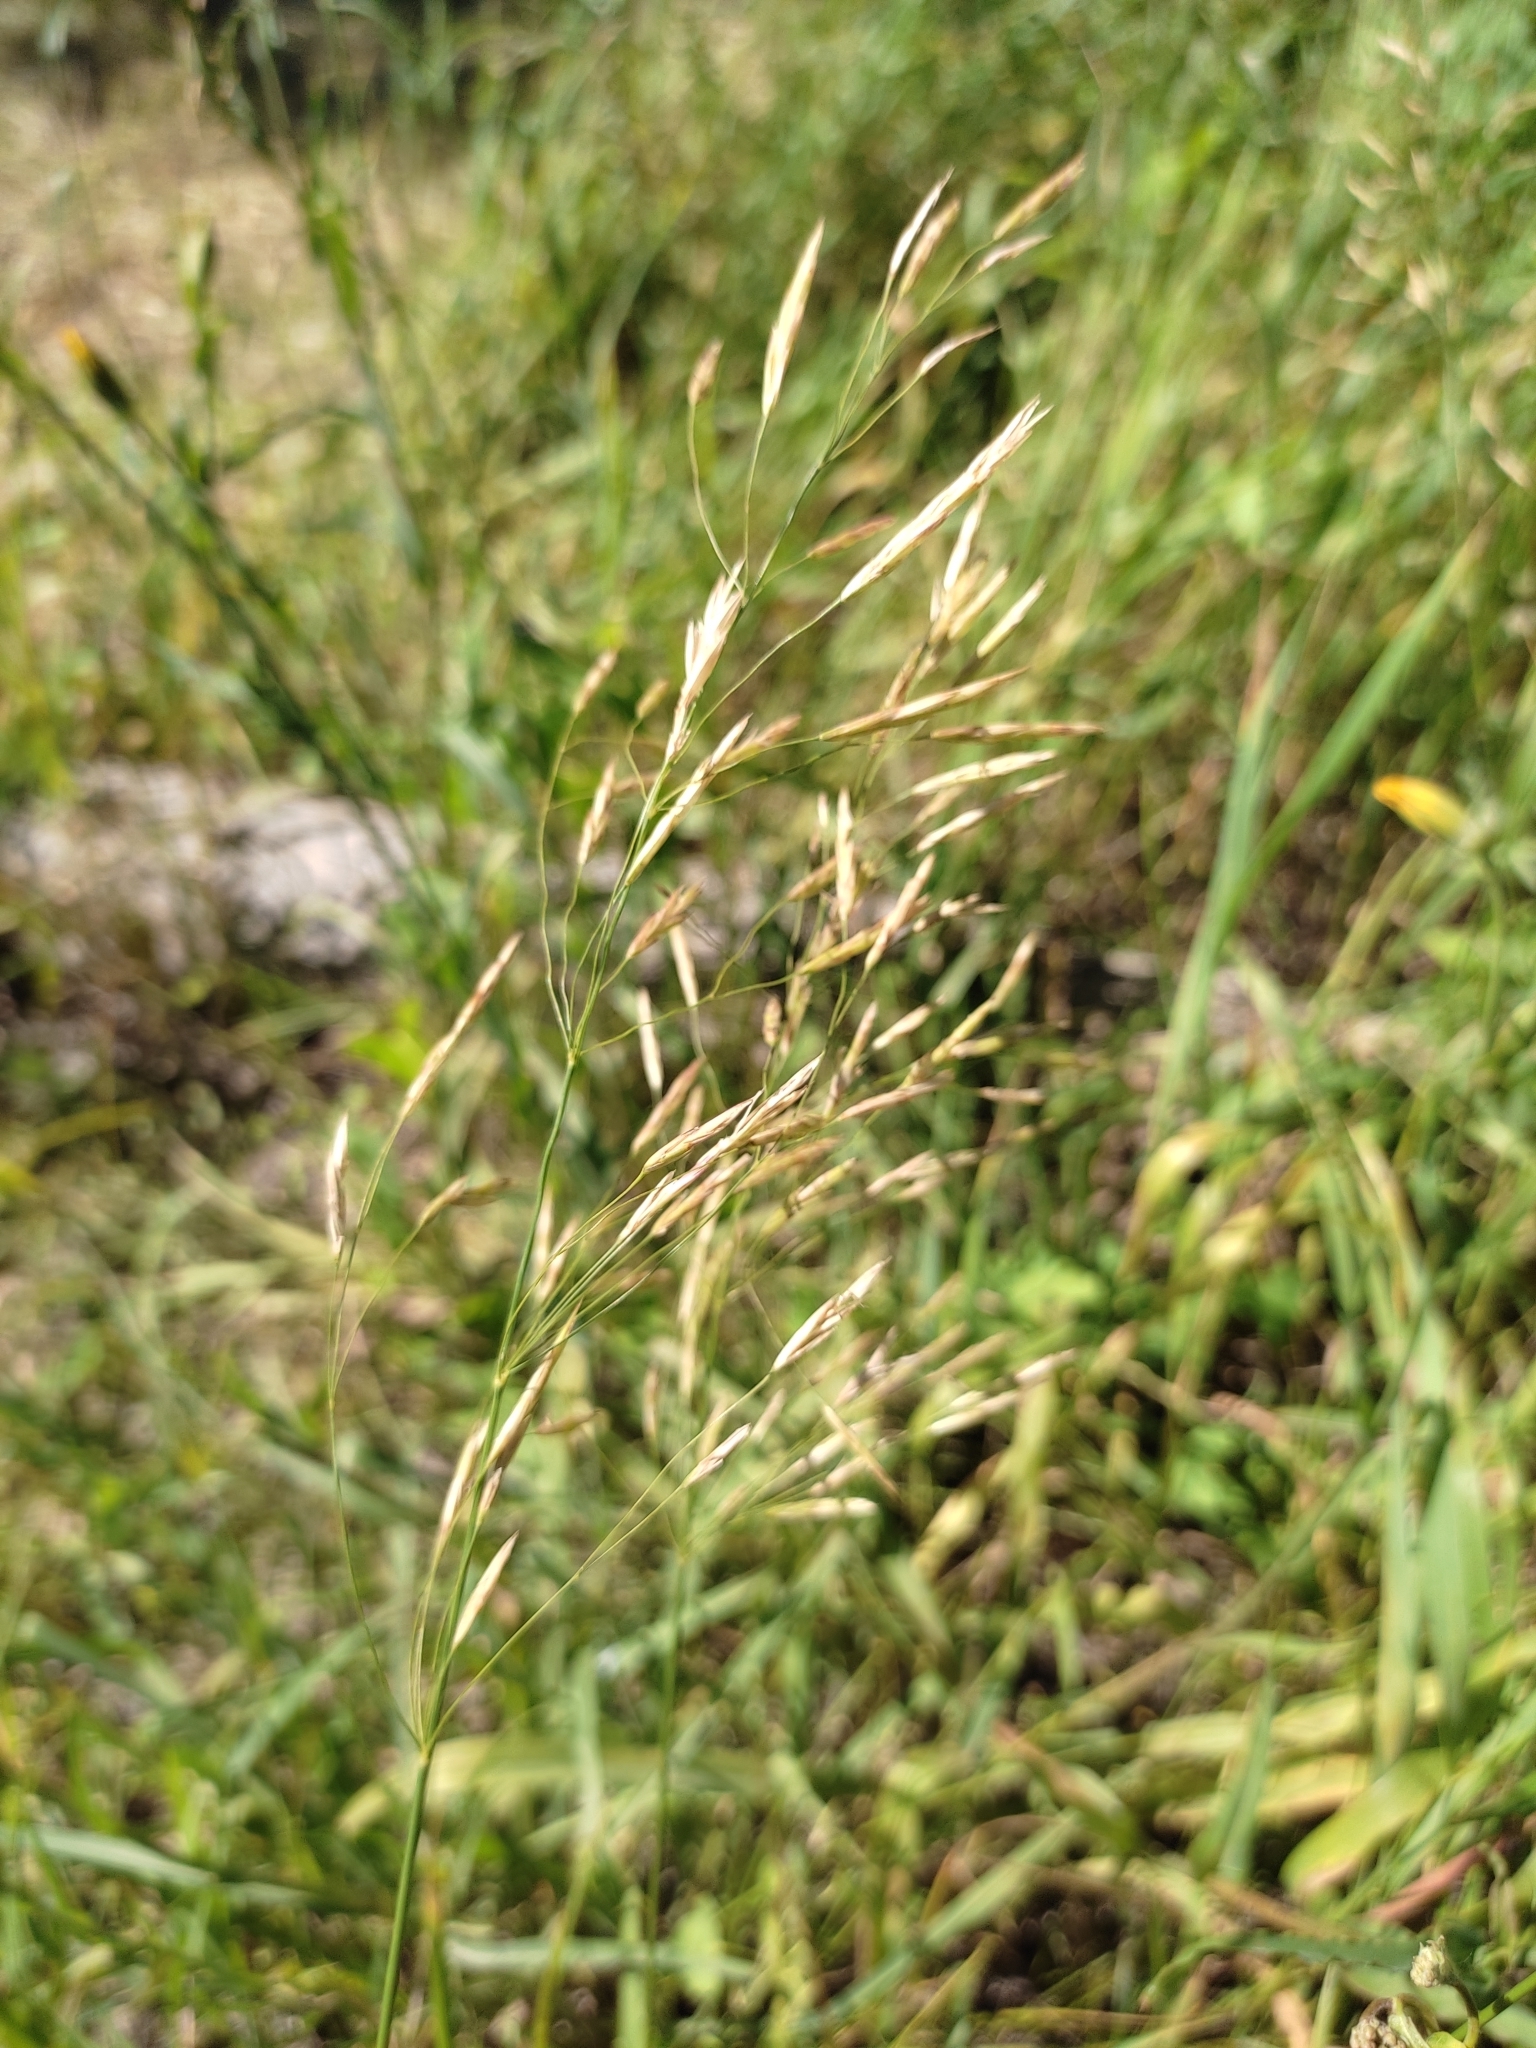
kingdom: Plantae
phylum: Tracheophyta
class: Liliopsida
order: Poales
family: Poaceae
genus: Bromus
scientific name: Bromus inermis
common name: Smooth brome
